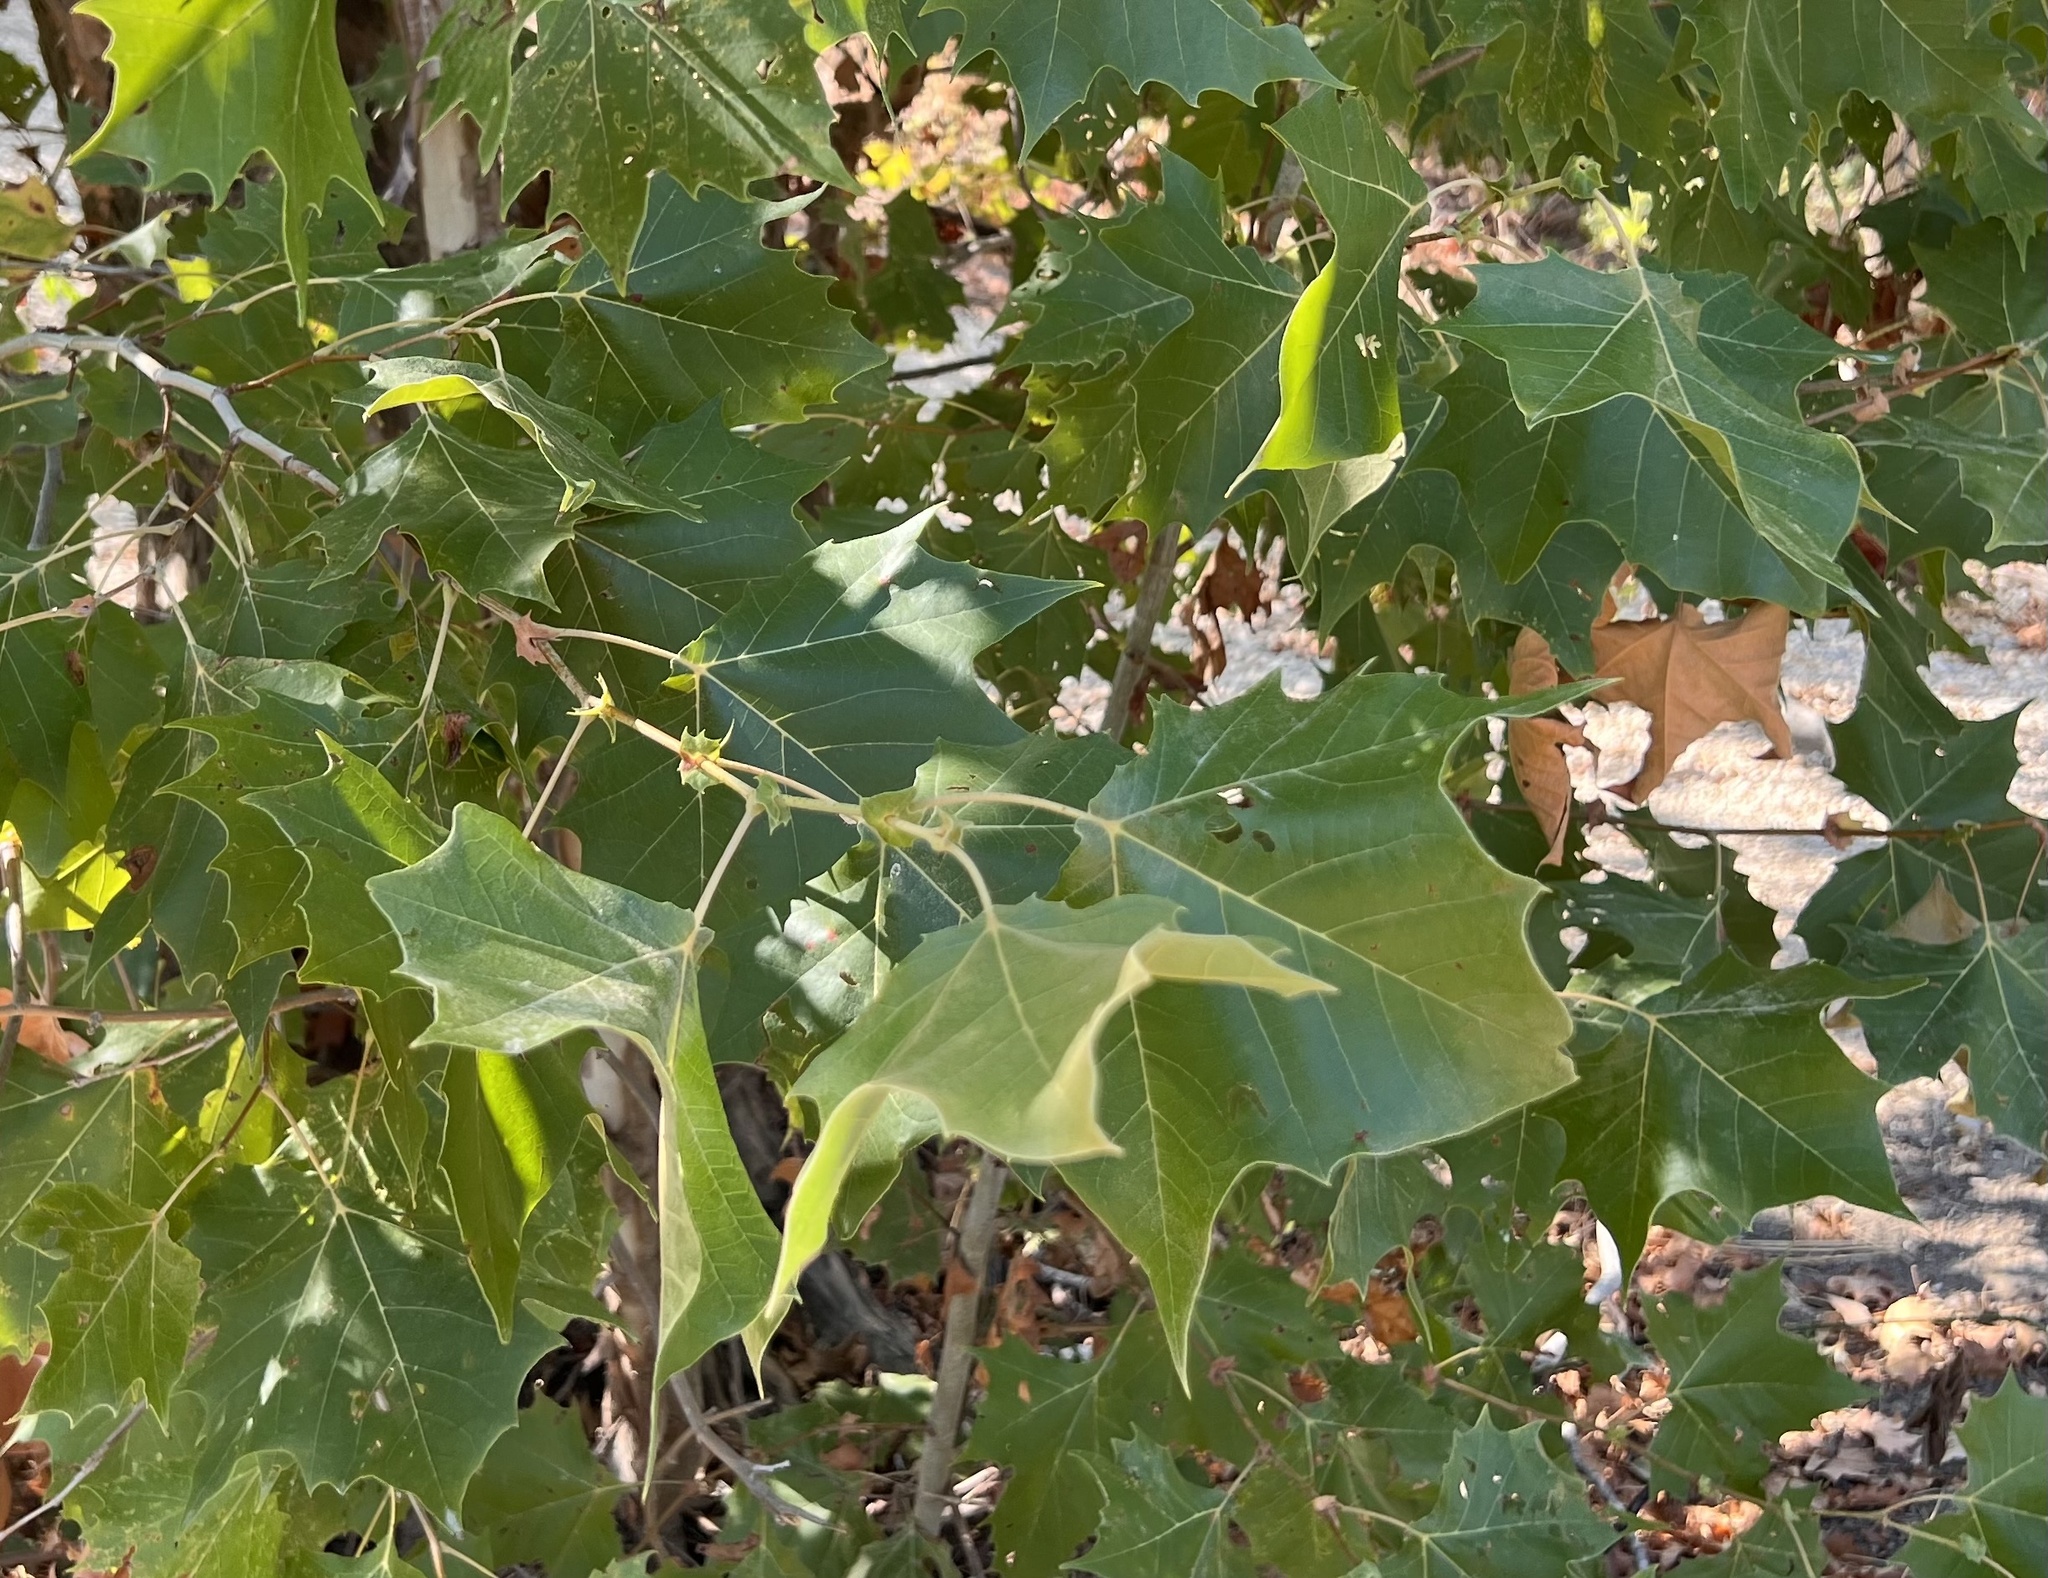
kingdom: Plantae
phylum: Tracheophyta
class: Magnoliopsida
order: Proteales
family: Platanaceae
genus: Platanus
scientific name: Platanus occidentalis
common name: American sycamore
